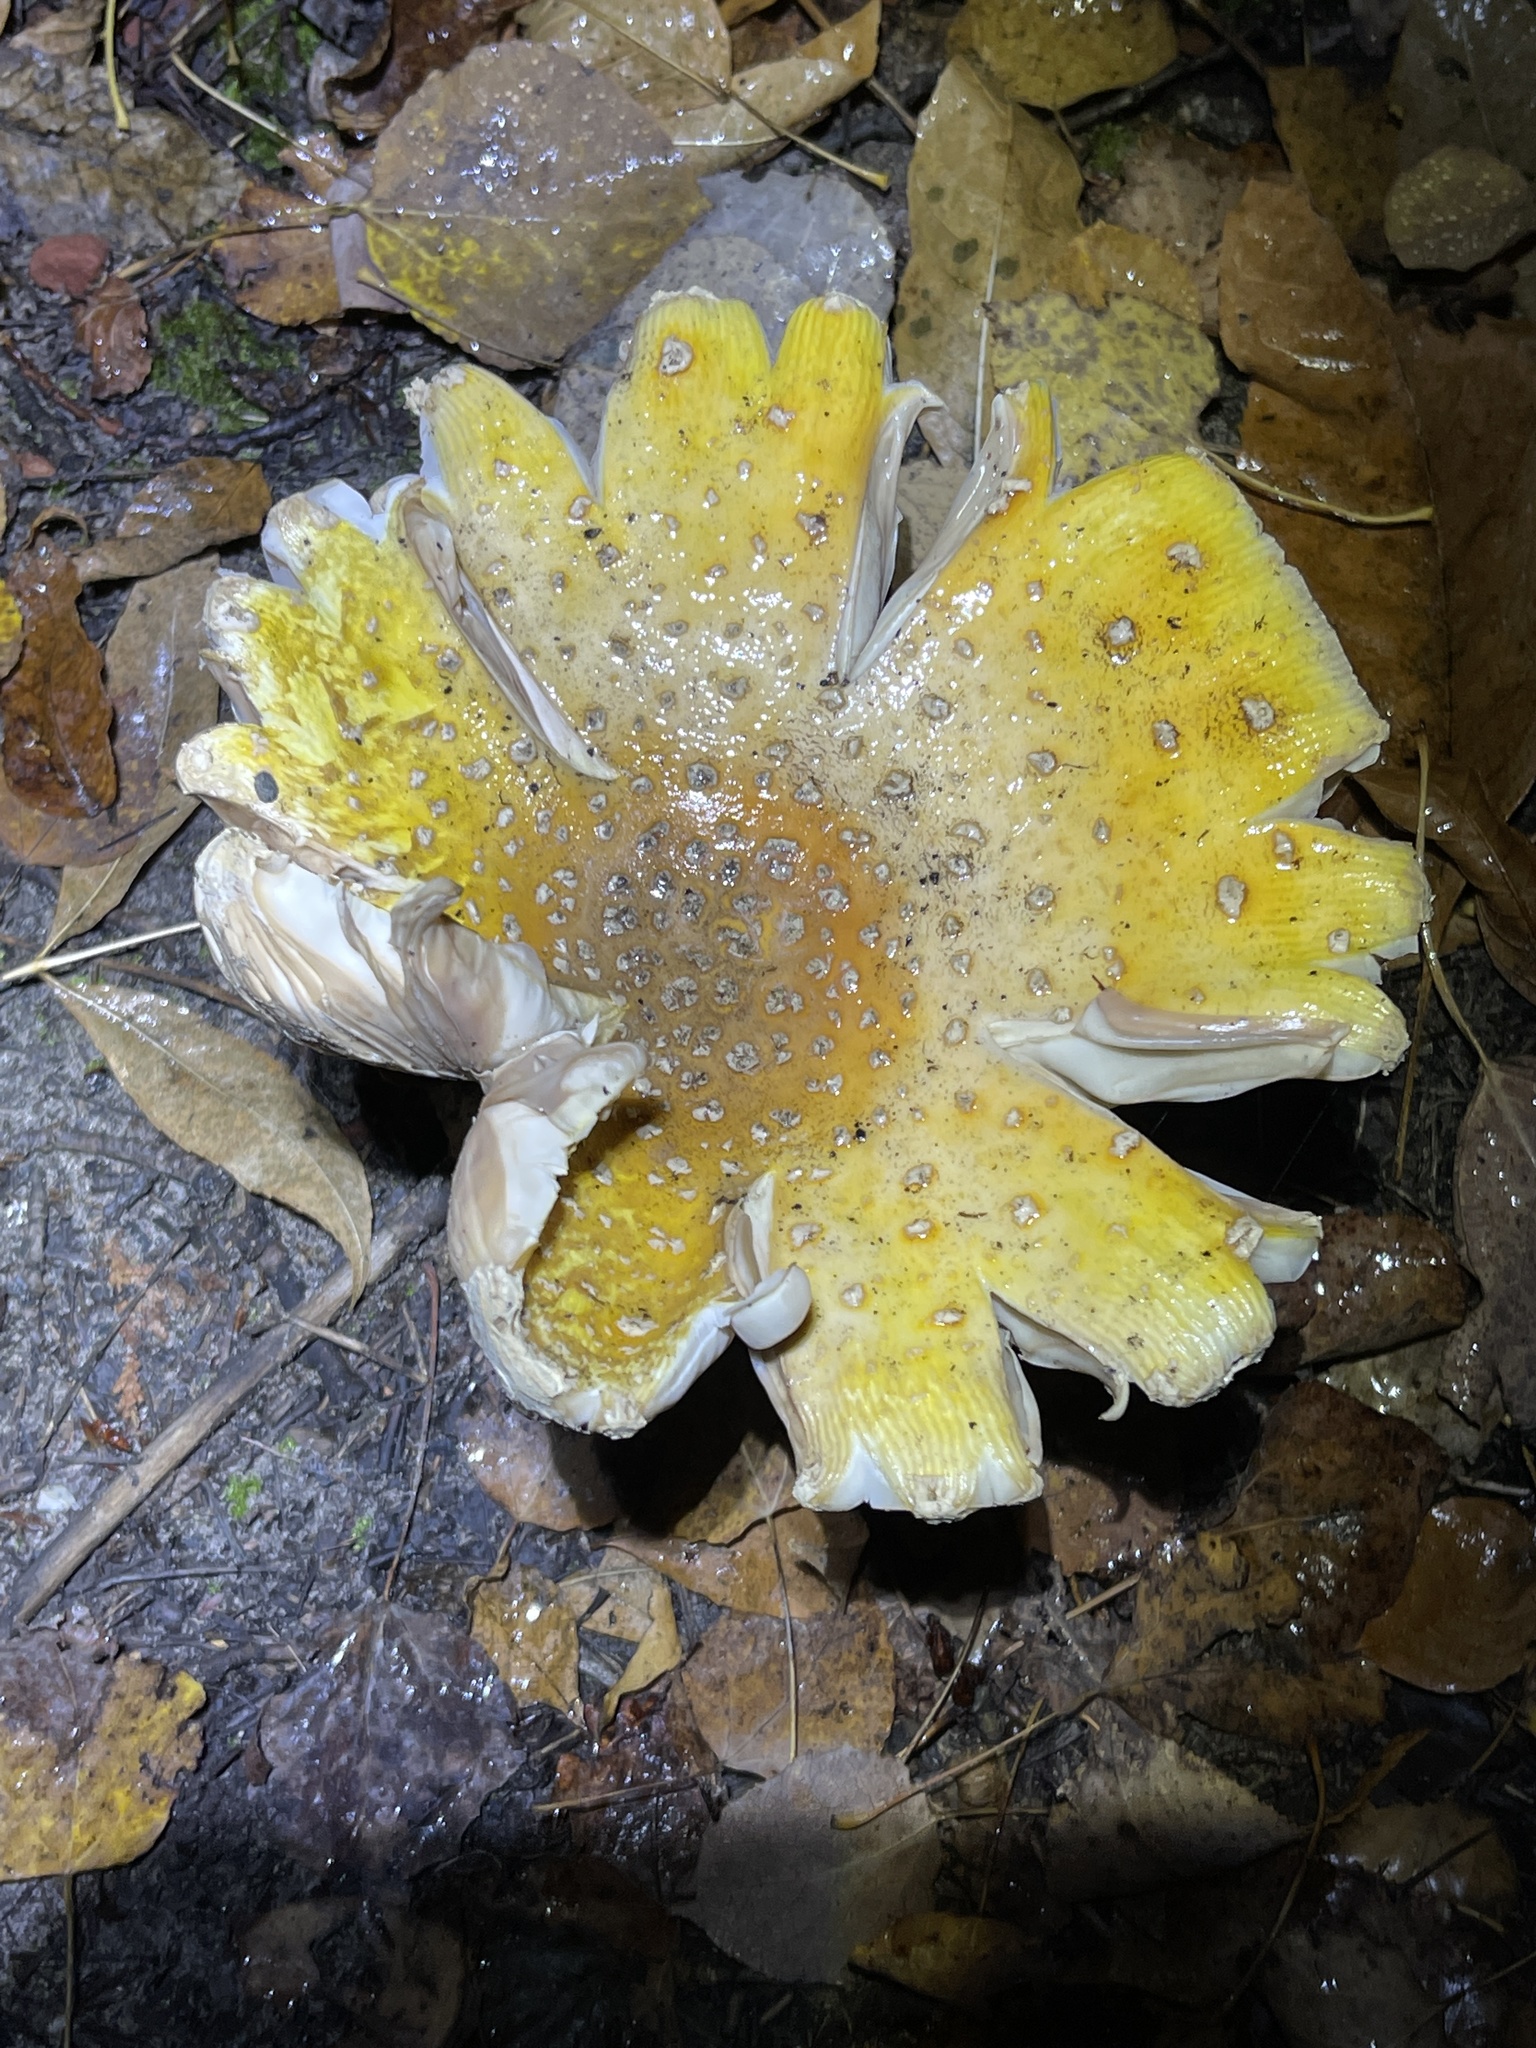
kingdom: Fungi
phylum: Basidiomycota
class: Agaricomycetes
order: Agaricales
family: Amanitaceae
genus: Amanita
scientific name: Amanita muscaria
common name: Fly agaric
